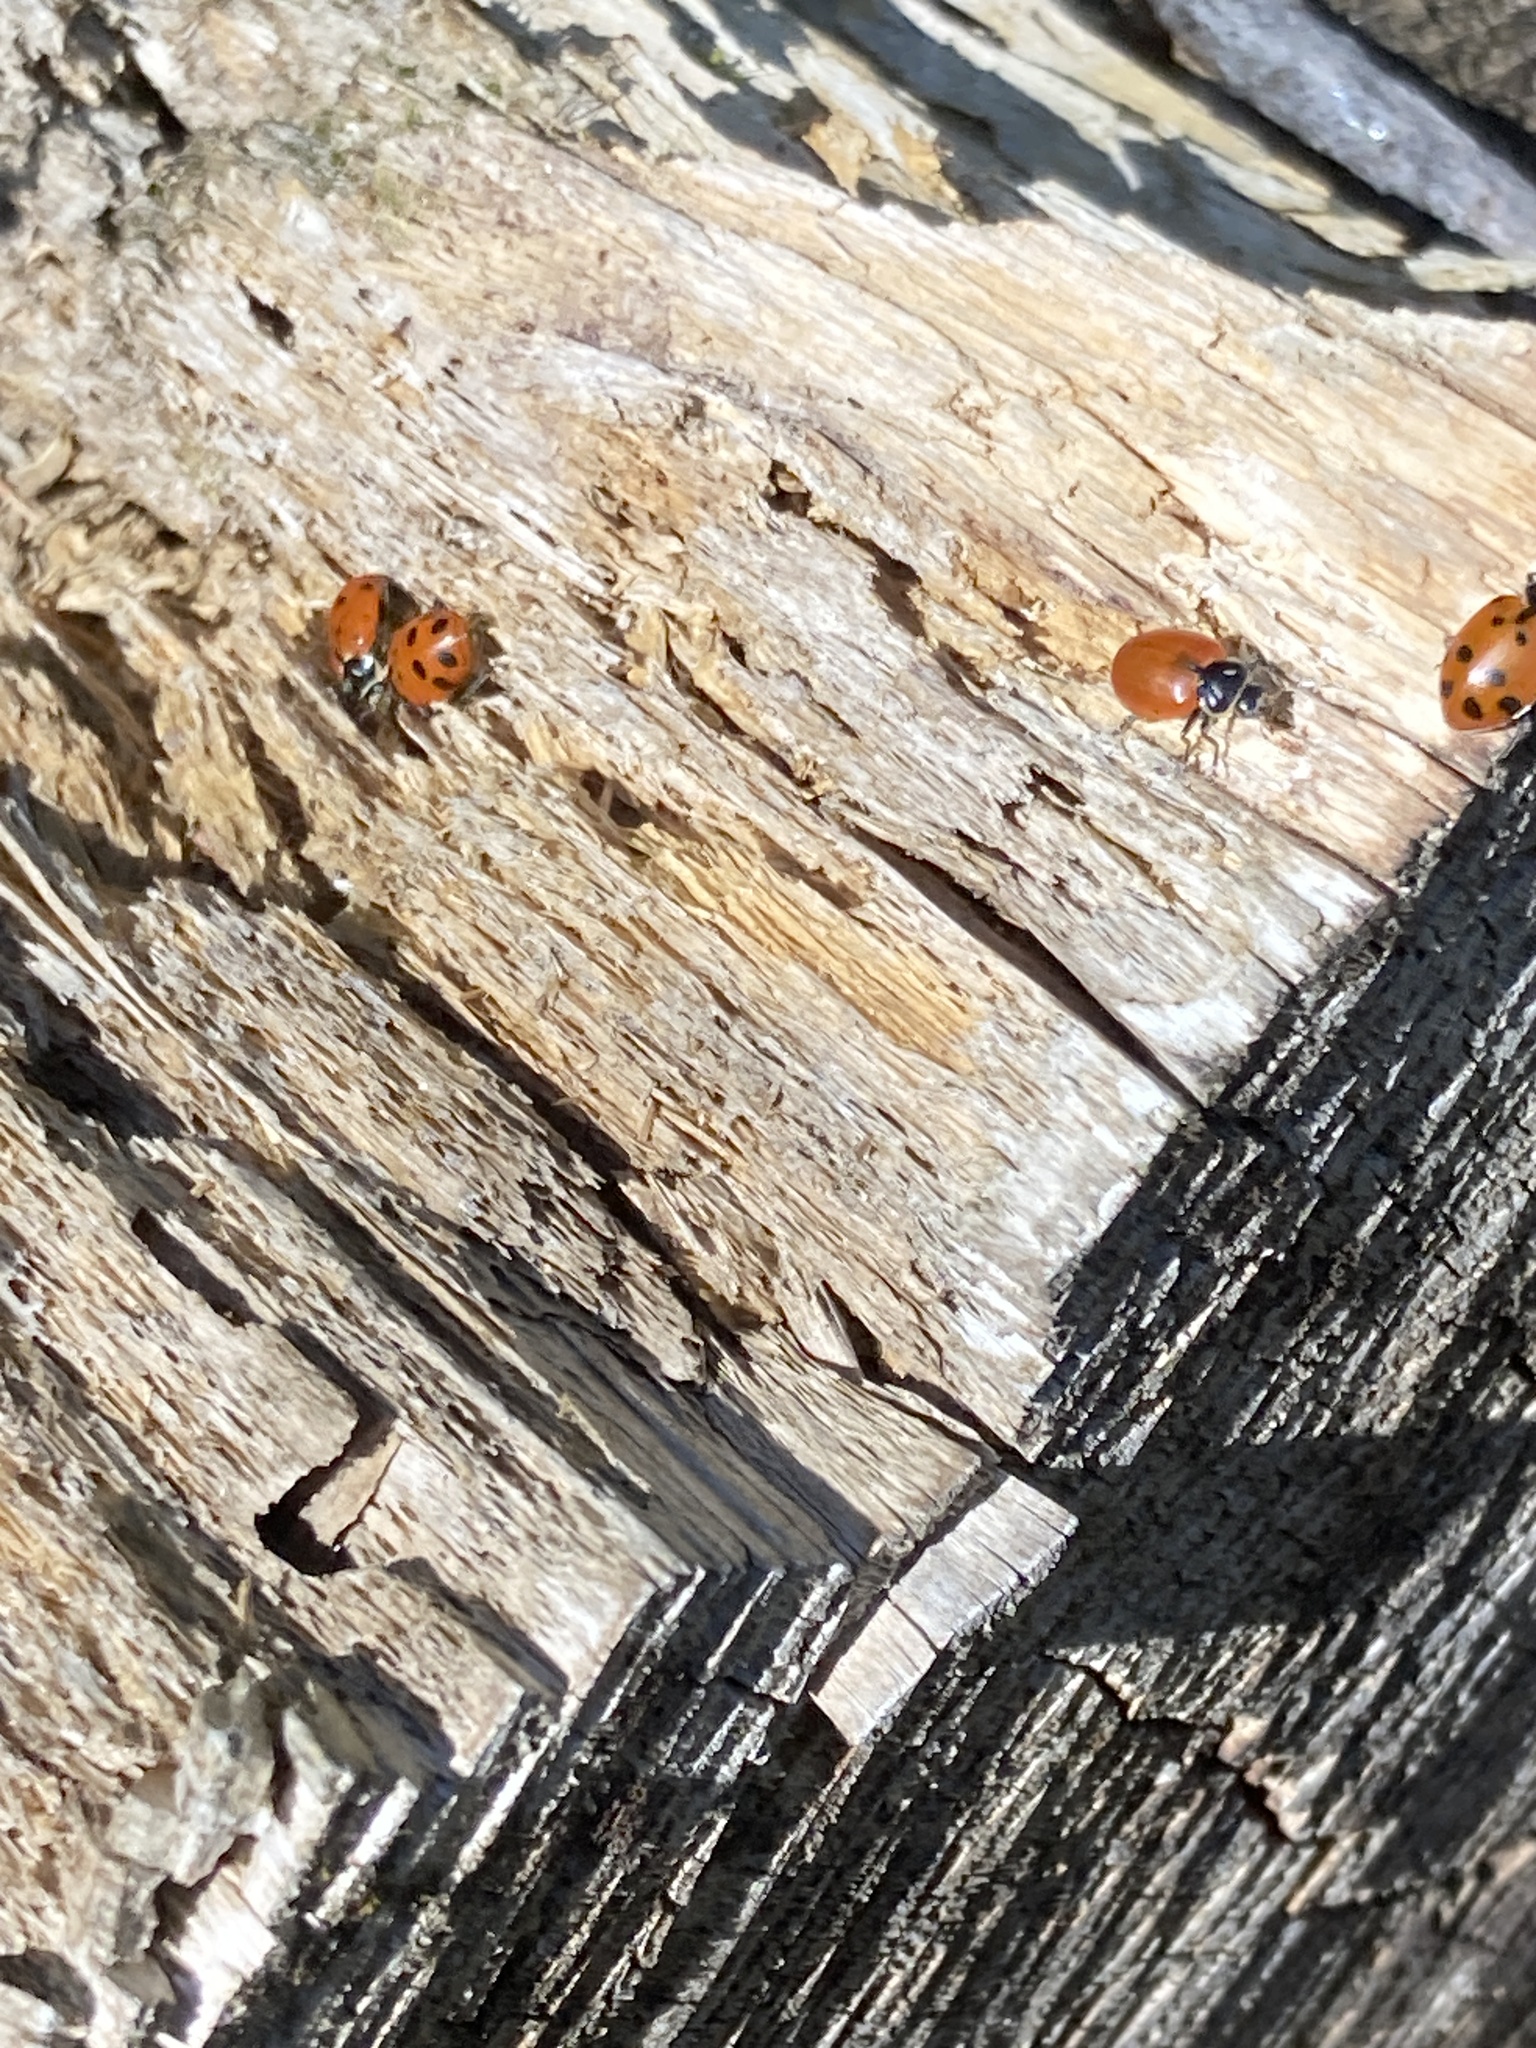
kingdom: Animalia
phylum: Arthropoda
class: Insecta
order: Coleoptera
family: Coccinellidae
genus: Hippodamia
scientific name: Hippodamia convergens
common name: Convergent lady beetle
